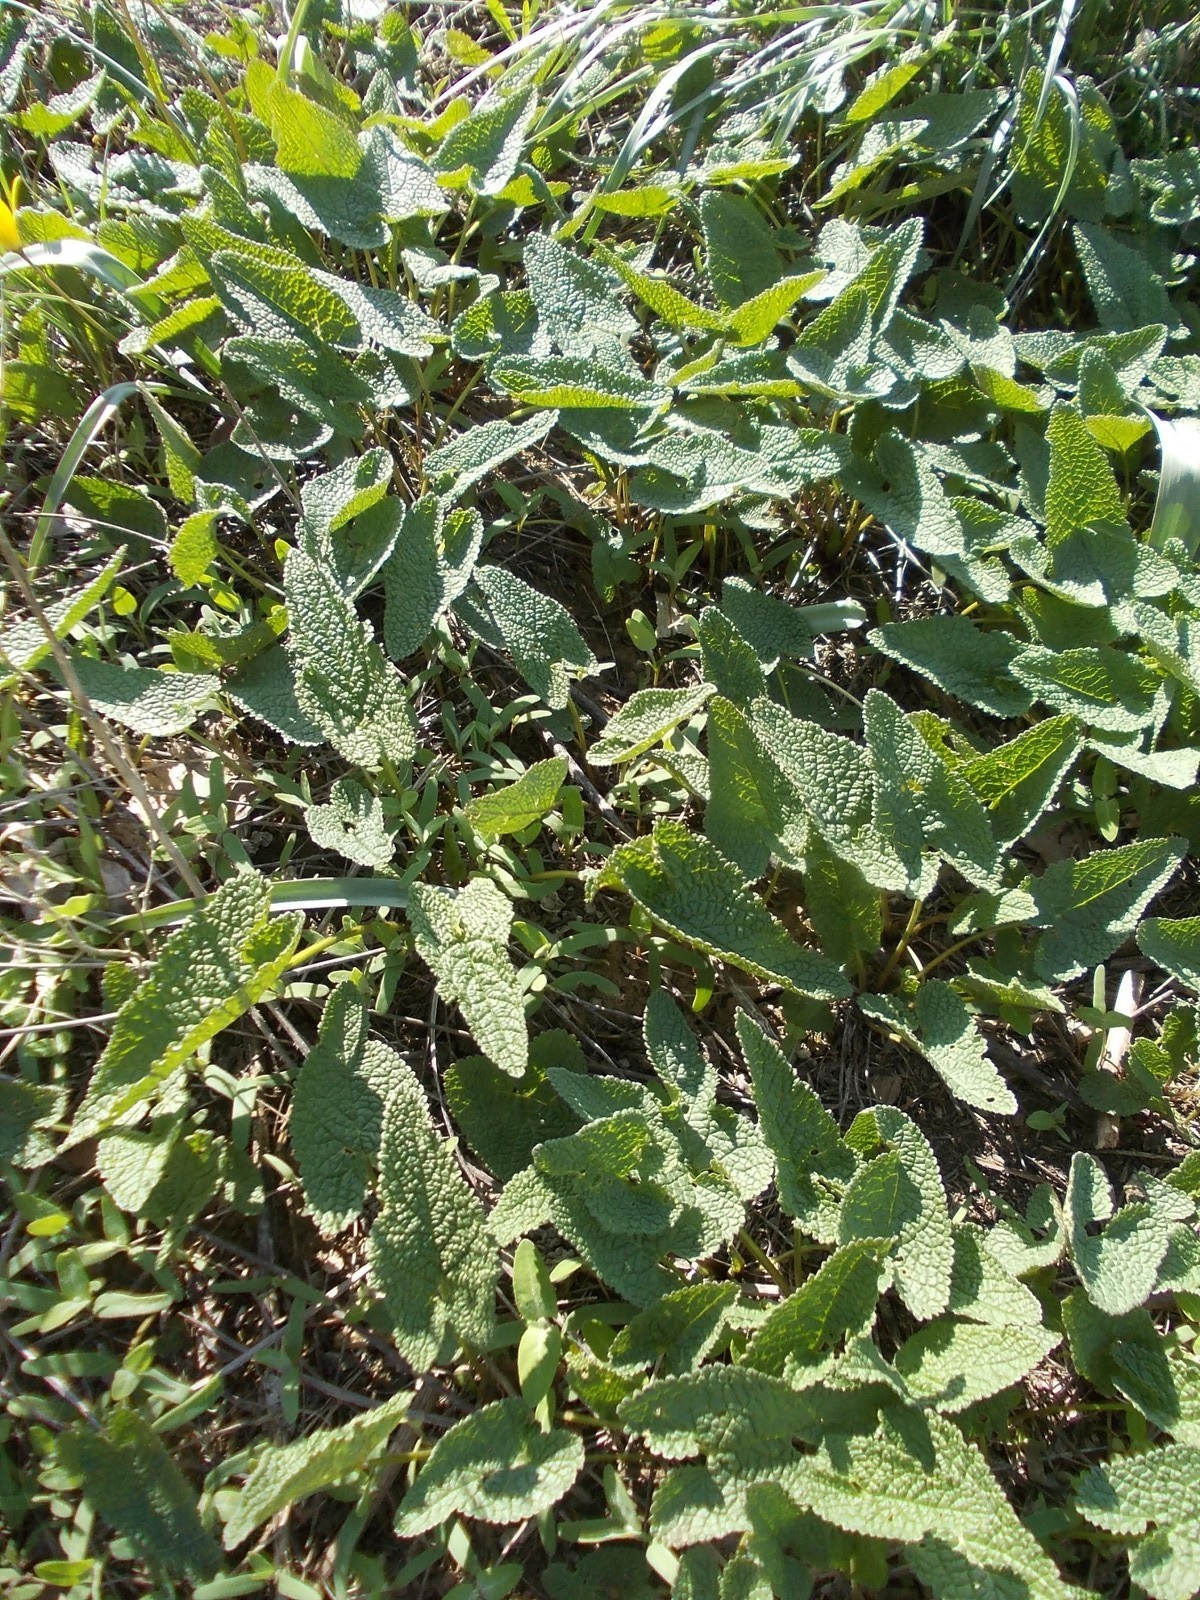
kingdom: Plantae
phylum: Tracheophyta
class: Magnoliopsida
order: Lamiales
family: Lamiaceae
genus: Phlomoides
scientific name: Phlomoides tuberosa
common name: Tuberous jerusalem sage
